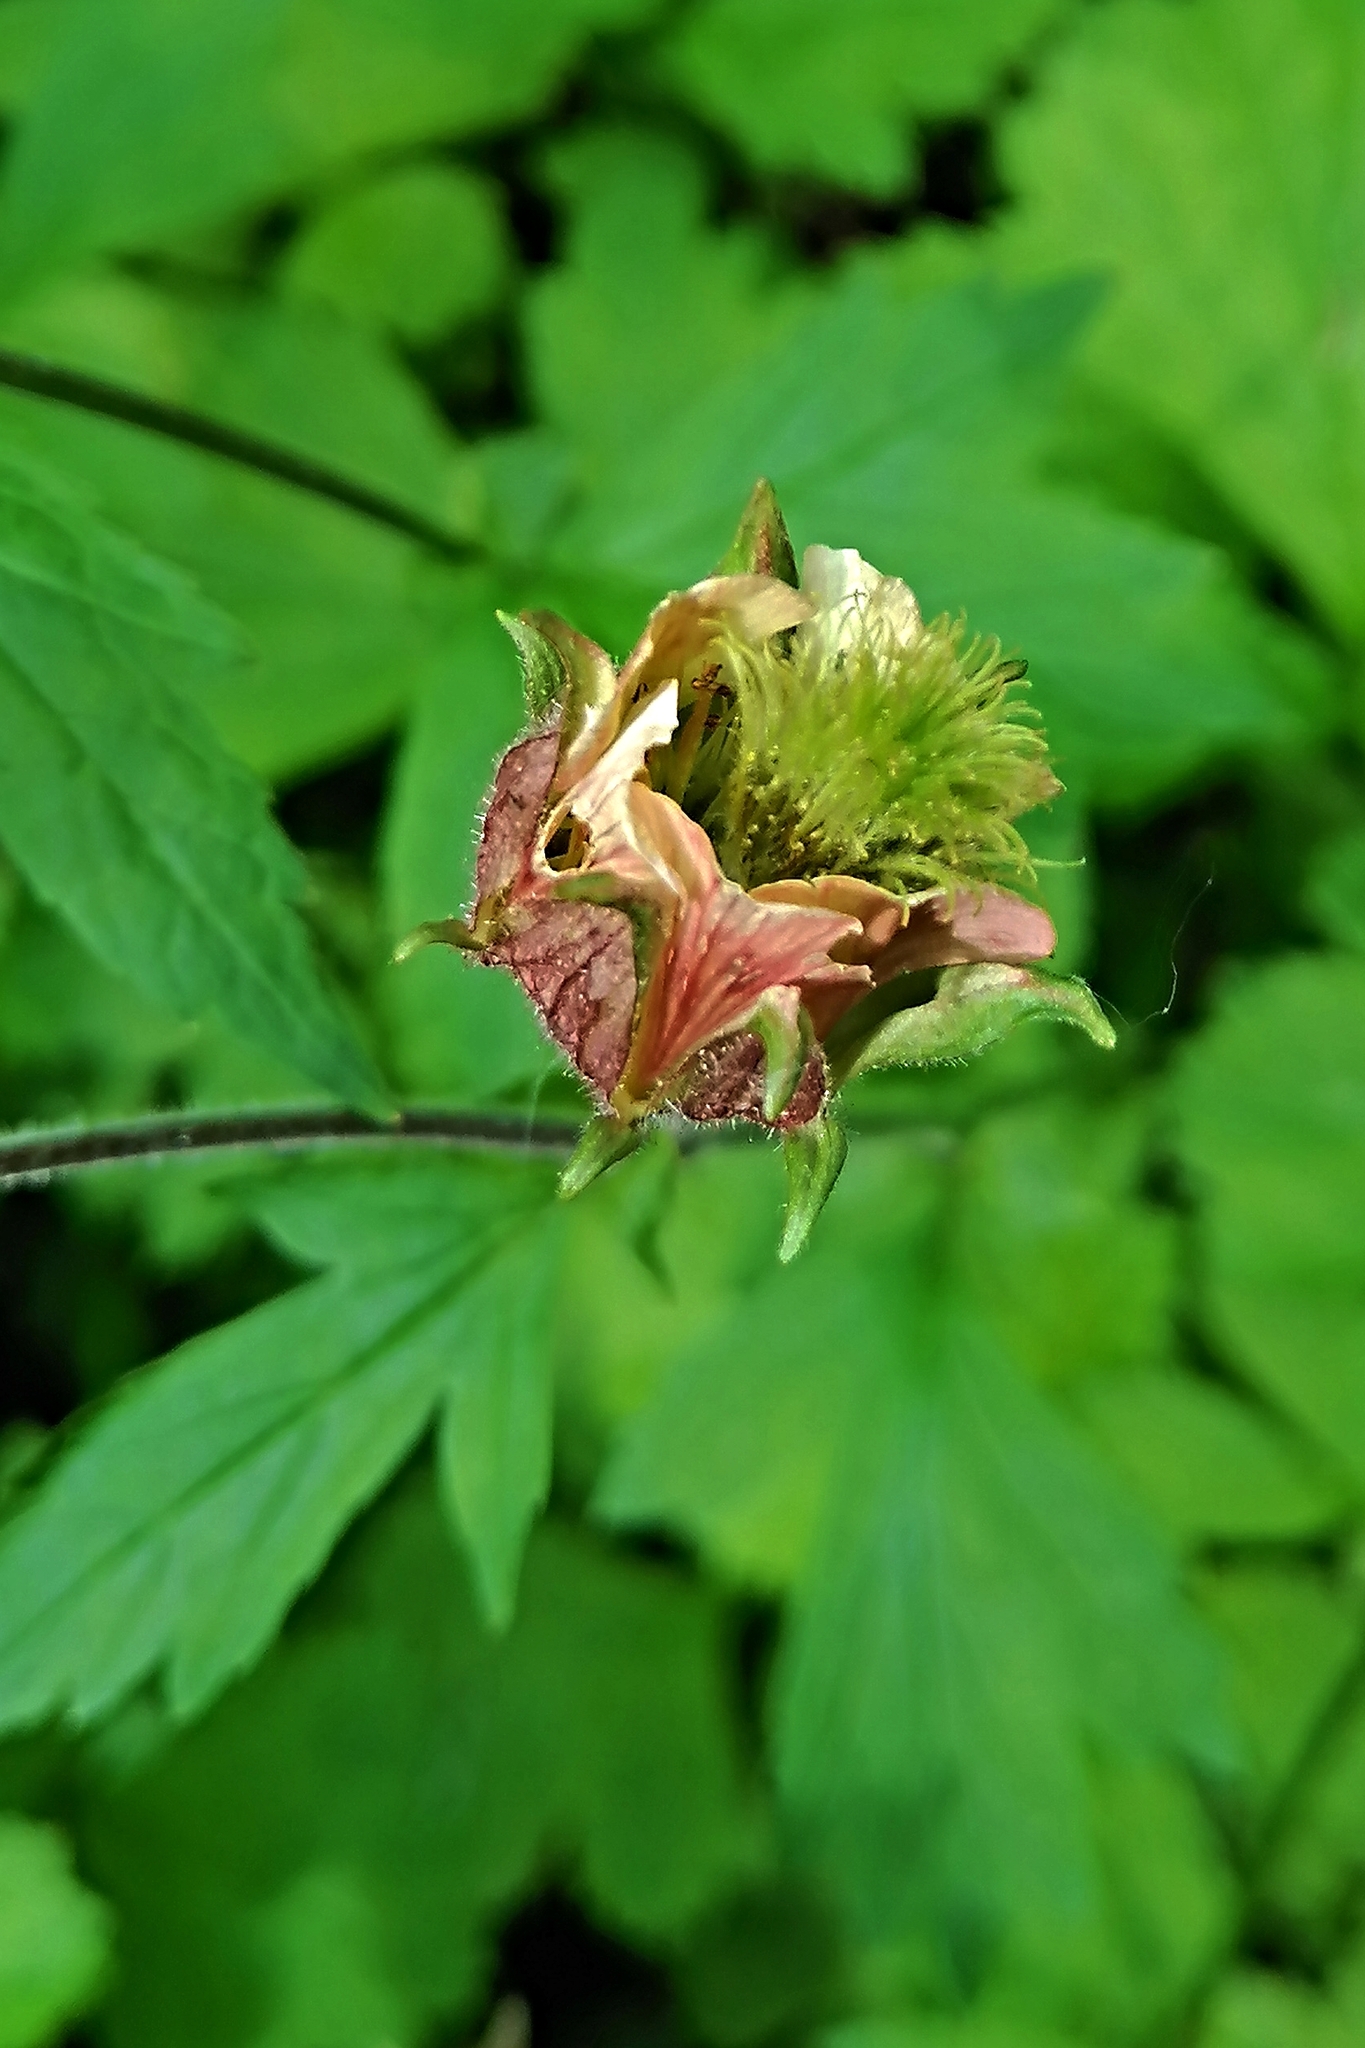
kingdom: Plantae
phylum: Tracheophyta
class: Magnoliopsida
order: Rosales
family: Rosaceae
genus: Geum
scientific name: Geum rivale
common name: Water avens
